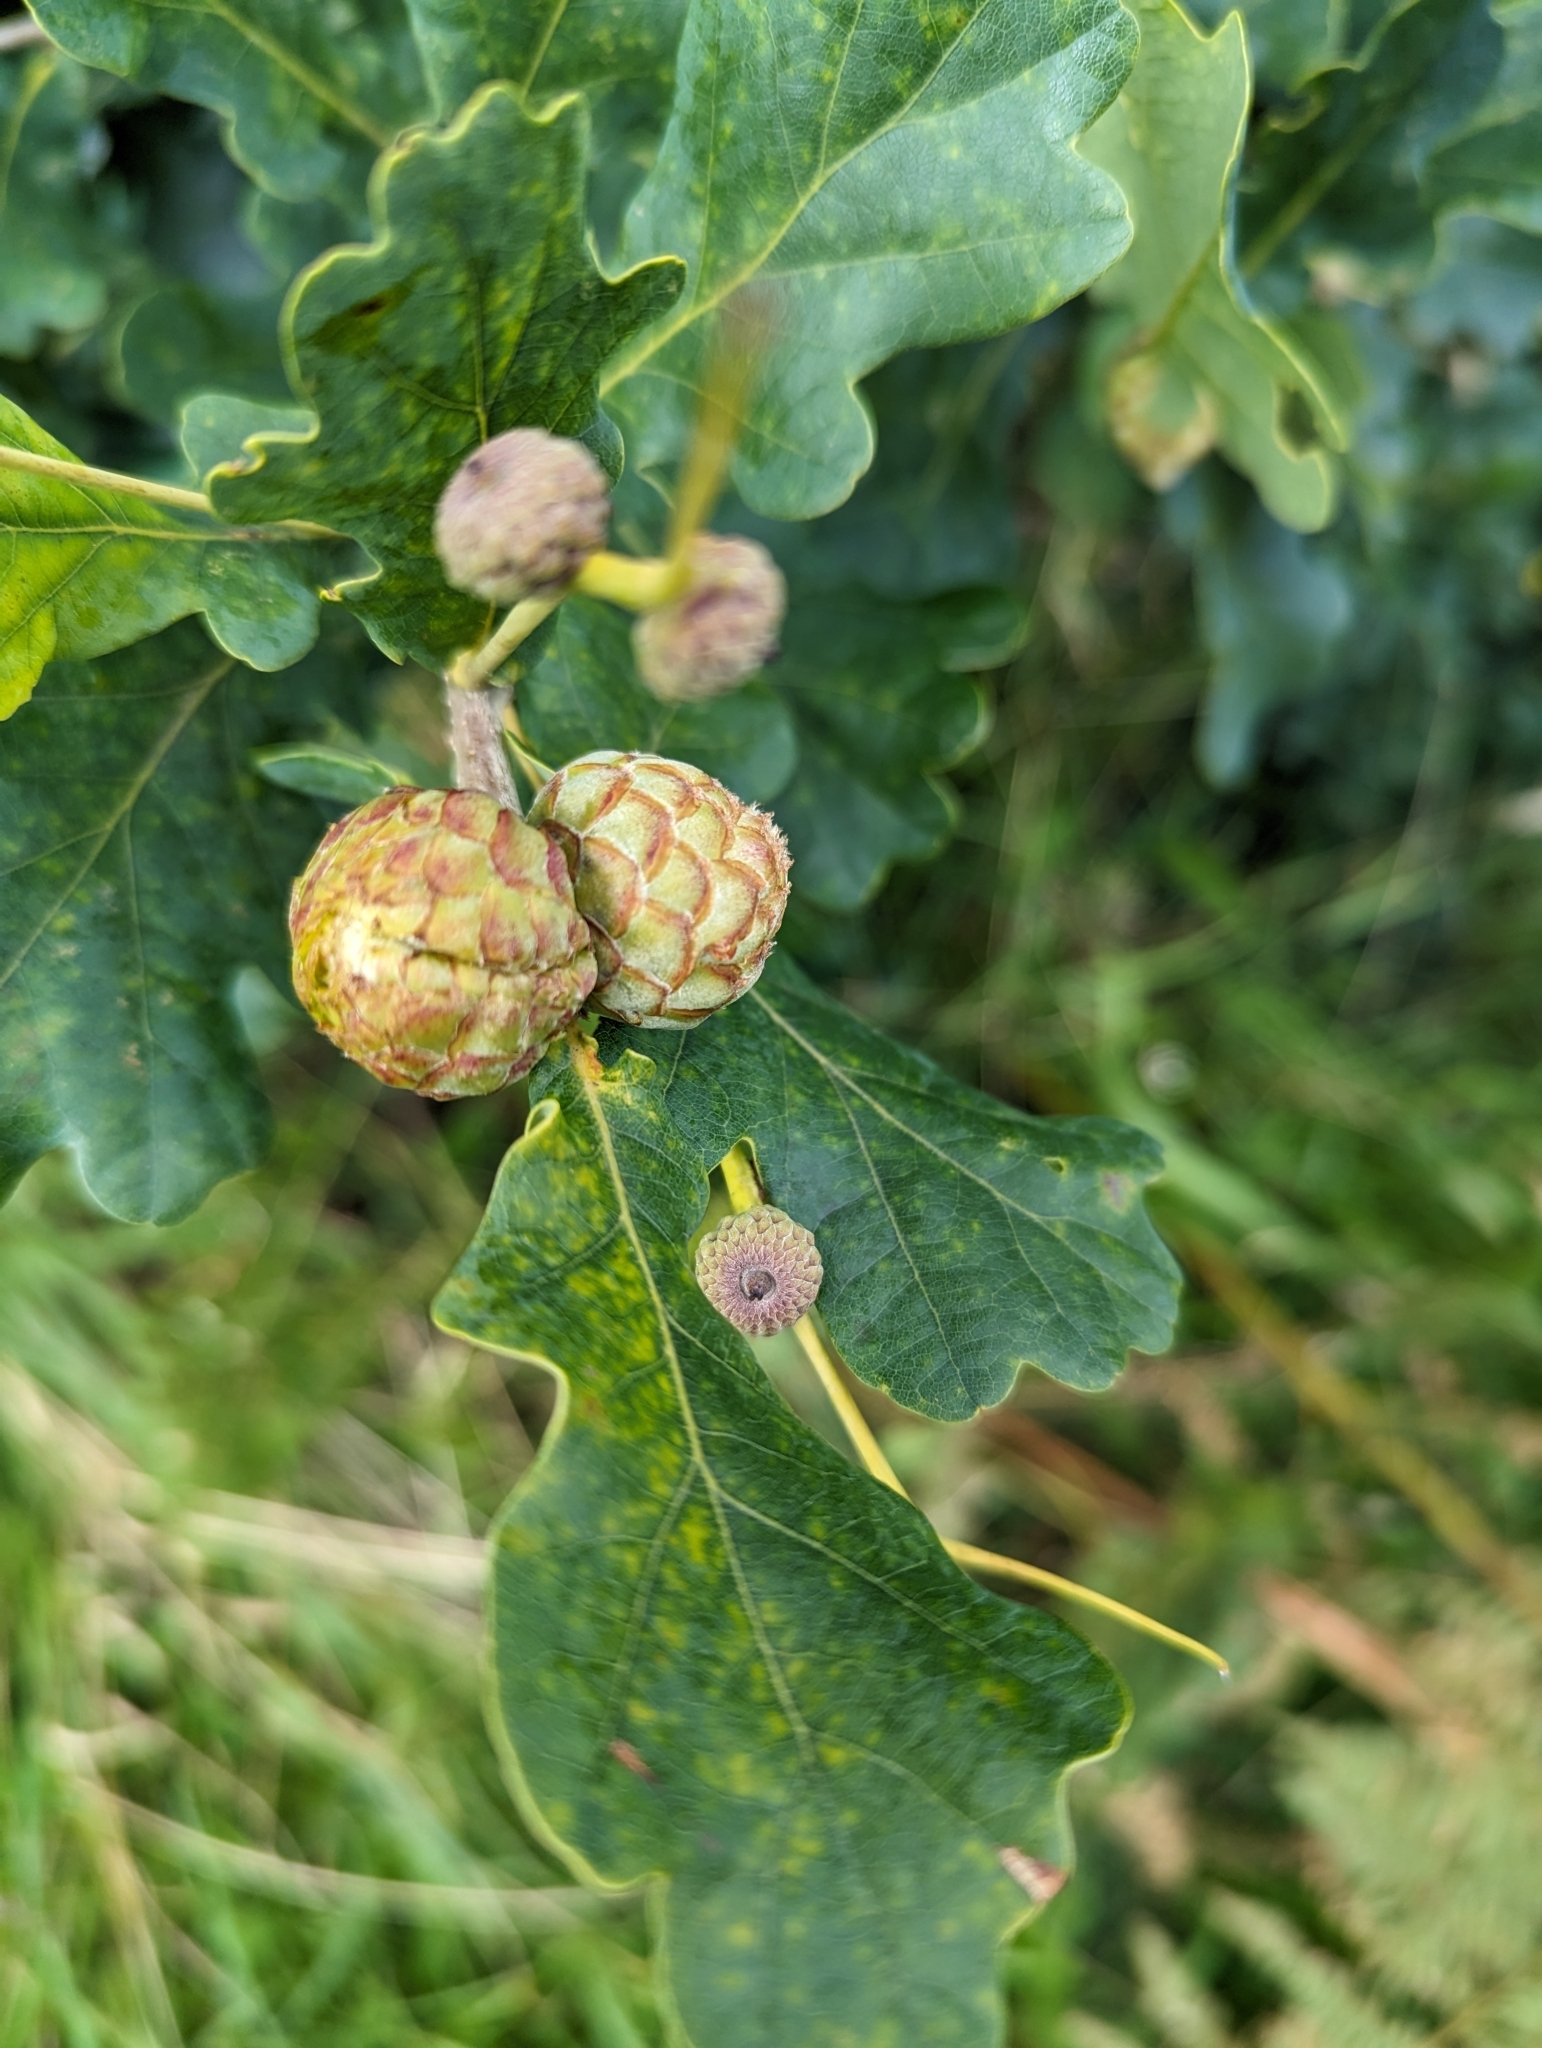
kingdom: Animalia
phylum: Arthropoda
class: Insecta
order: Hymenoptera
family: Cynipidae
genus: Andricus
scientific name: Andricus foecundatrix
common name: Artichoke gall
